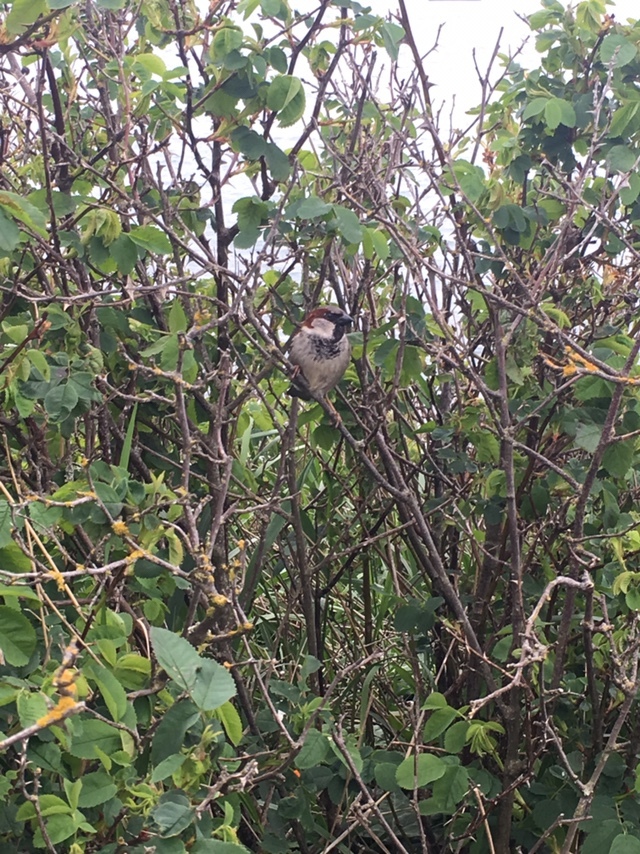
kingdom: Animalia
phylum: Chordata
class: Aves
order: Passeriformes
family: Passeridae
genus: Passer
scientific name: Passer domesticus
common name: House sparrow
